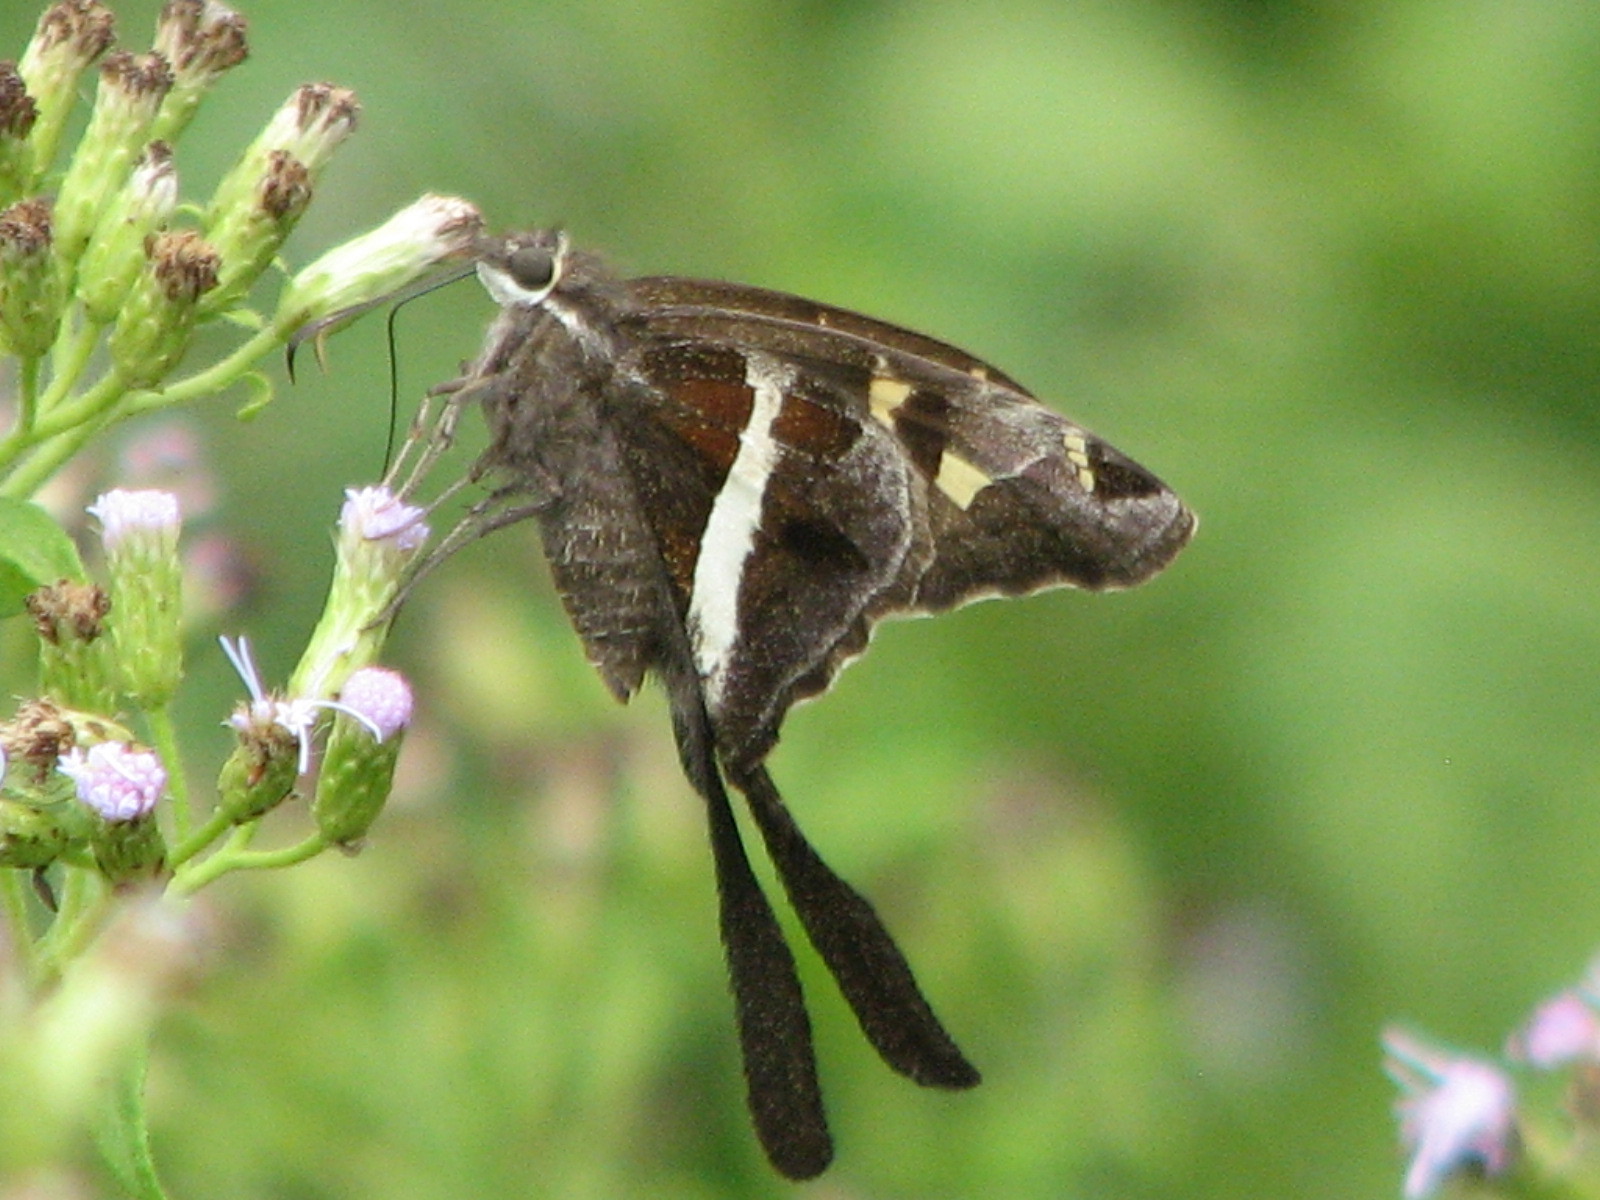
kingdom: Animalia
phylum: Arthropoda
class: Insecta
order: Lepidoptera
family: Hesperiidae
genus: Chioides
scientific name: Chioides catillus
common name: Silverbanded skipper
